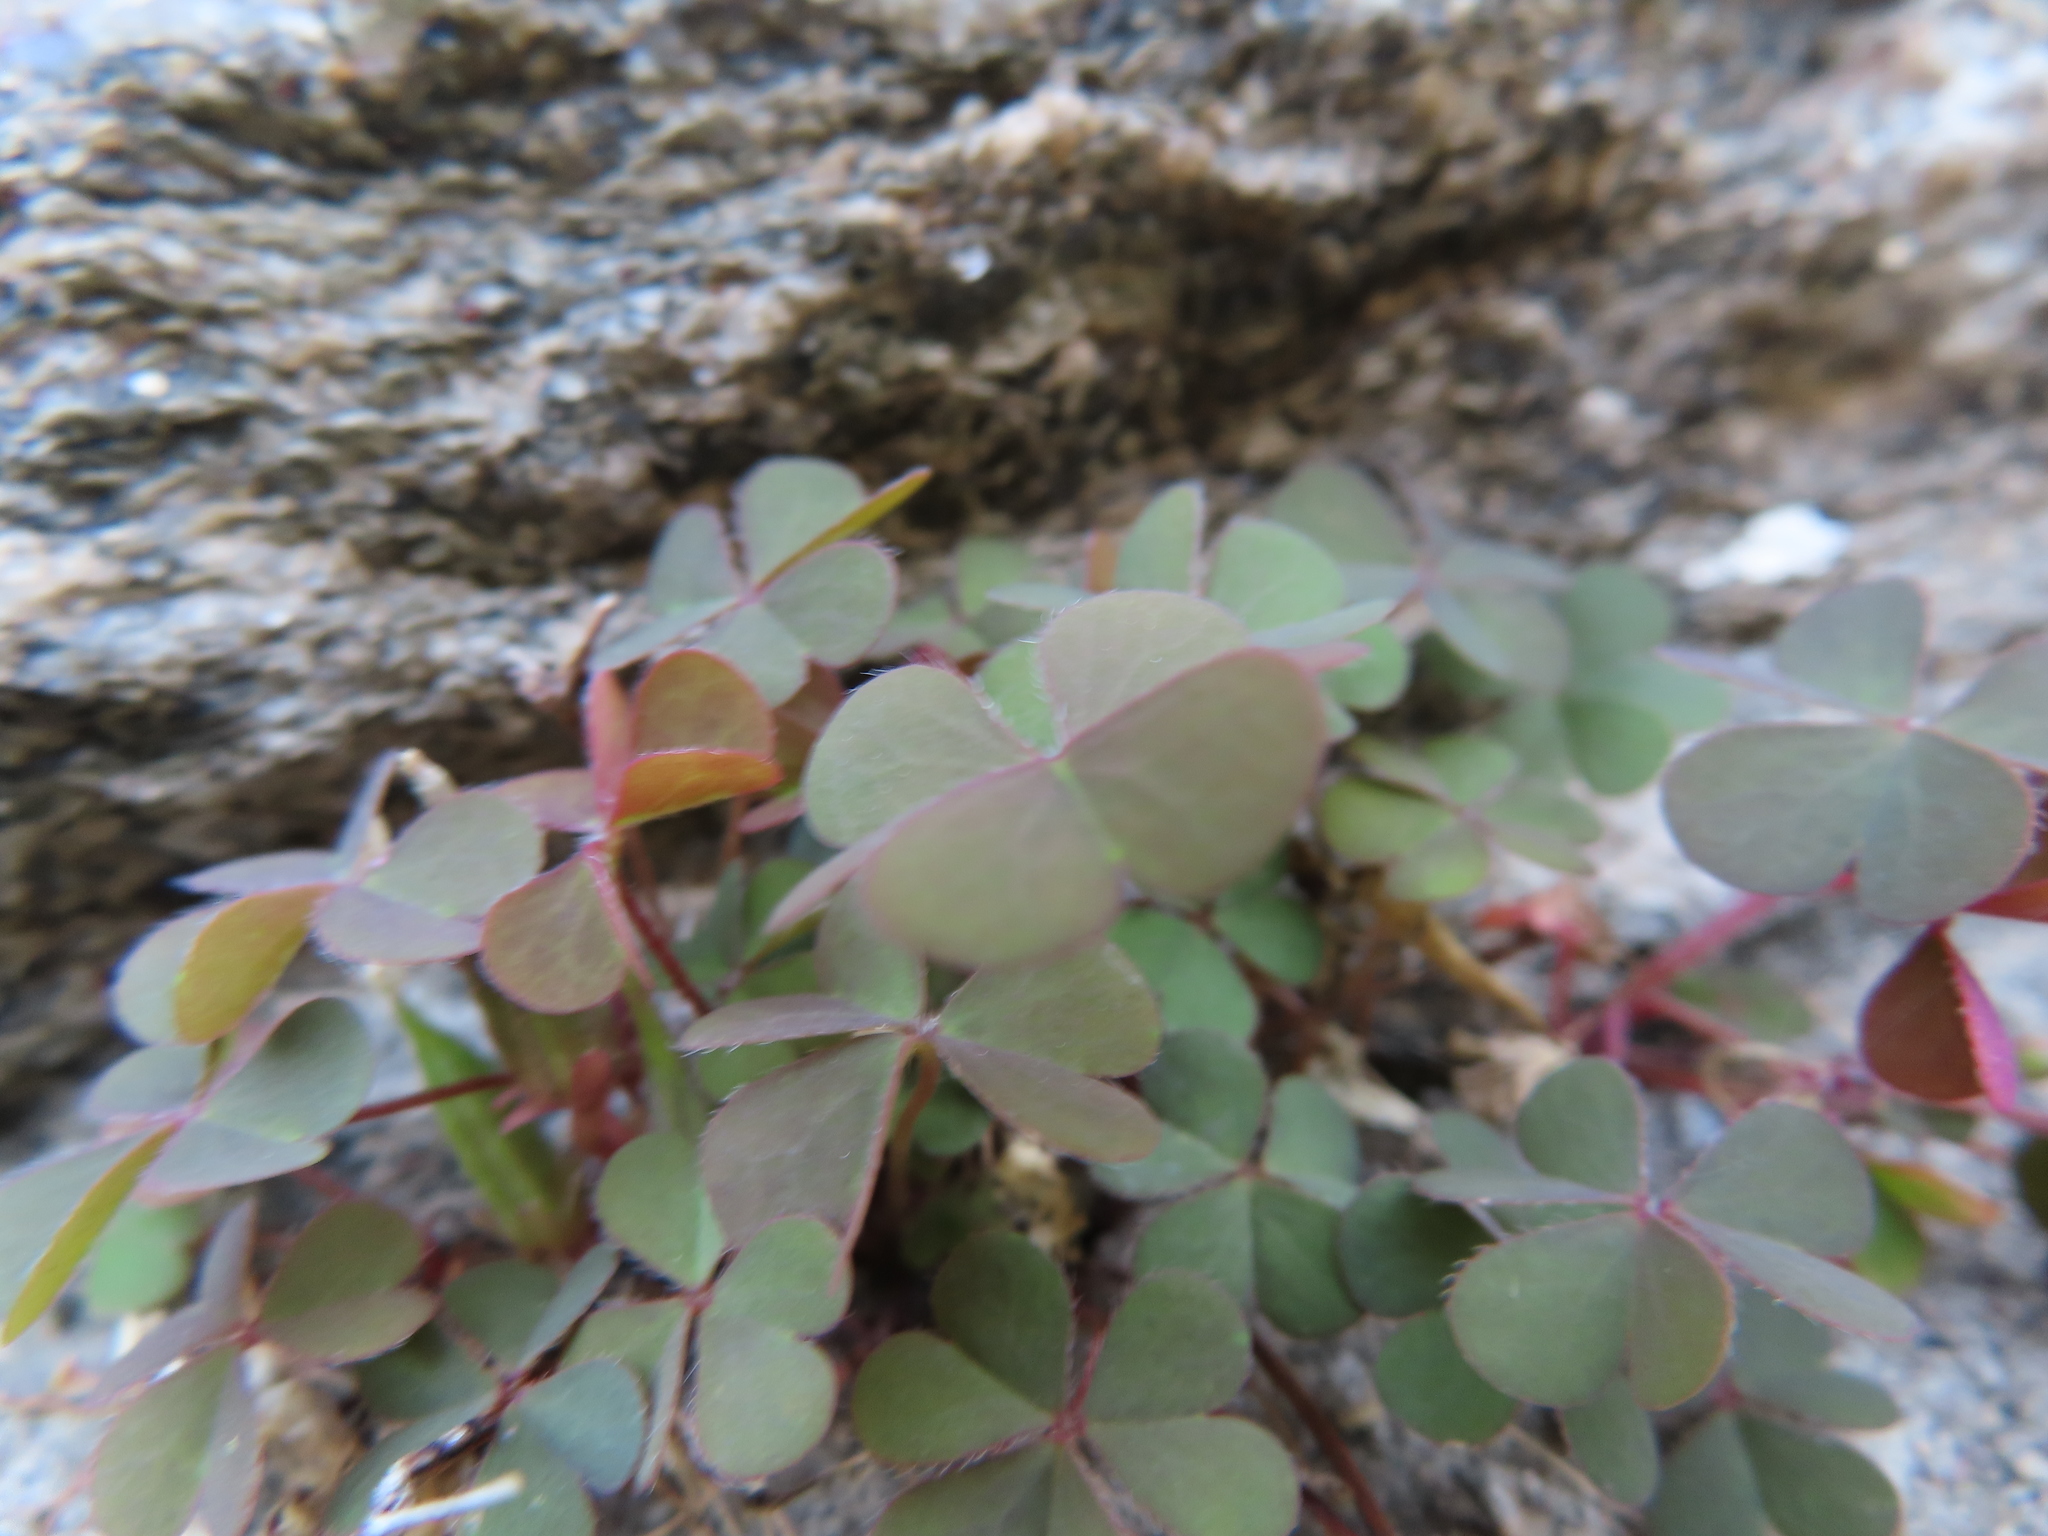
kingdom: Plantae
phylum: Tracheophyta
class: Magnoliopsida
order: Oxalidales
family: Oxalidaceae
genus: Oxalis
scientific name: Oxalis corniculata
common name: Procumbent yellow-sorrel
